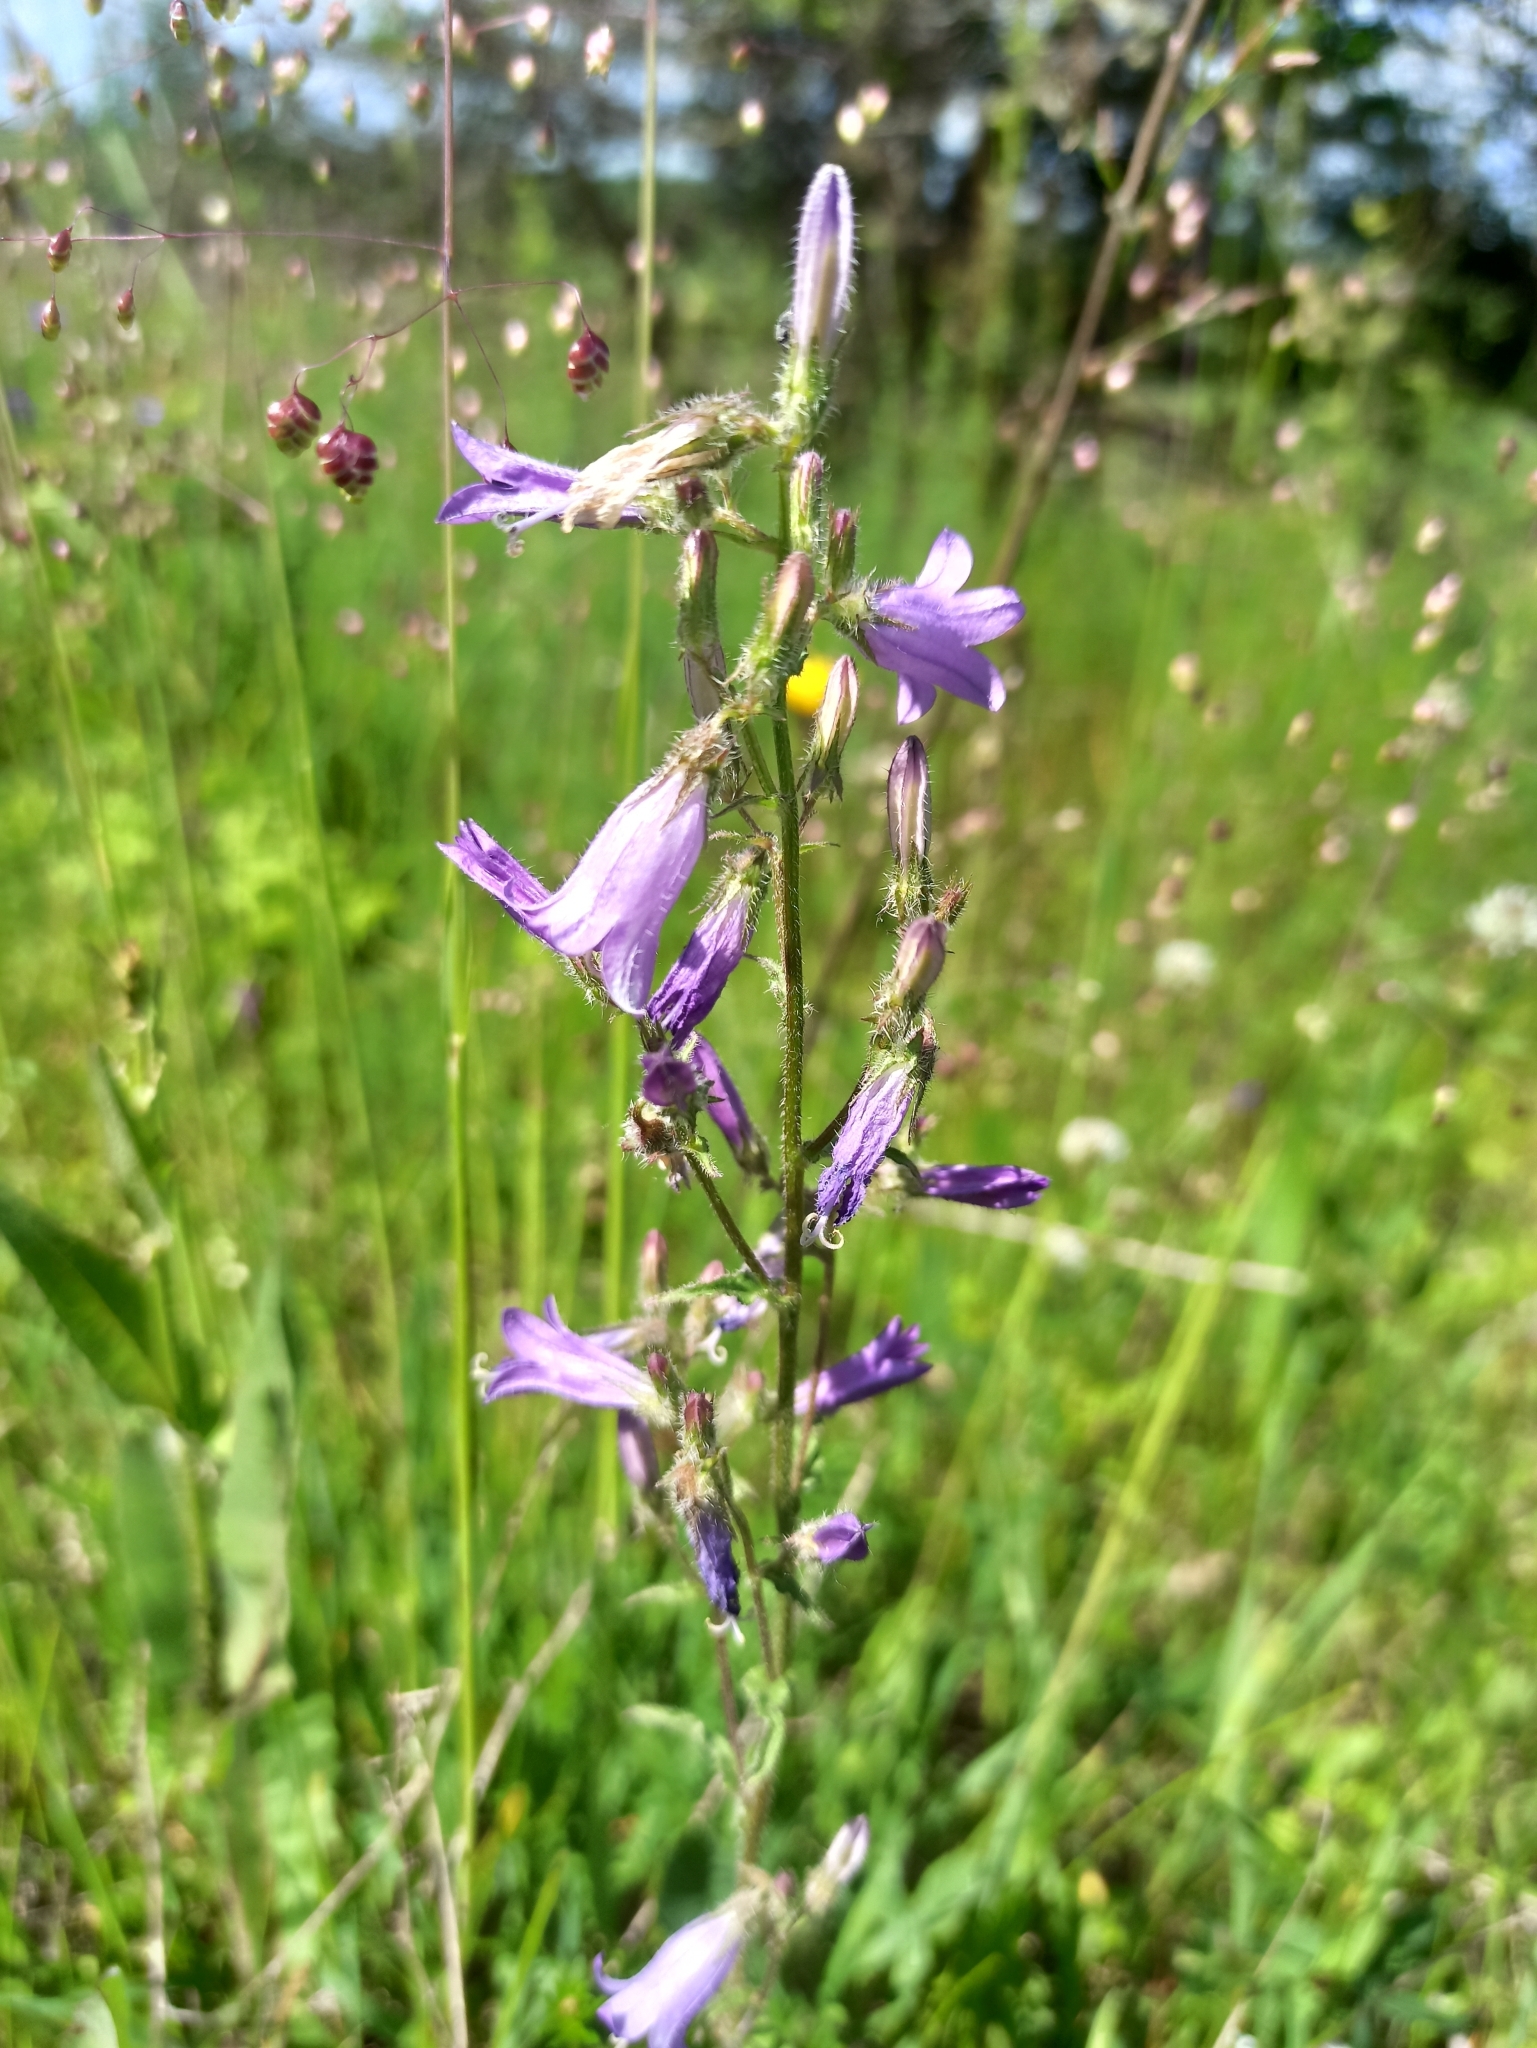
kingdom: Plantae
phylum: Tracheophyta
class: Magnoliopsida
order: Asterales
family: Campanulaceae
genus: Campanula
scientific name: Campanula sibirica
